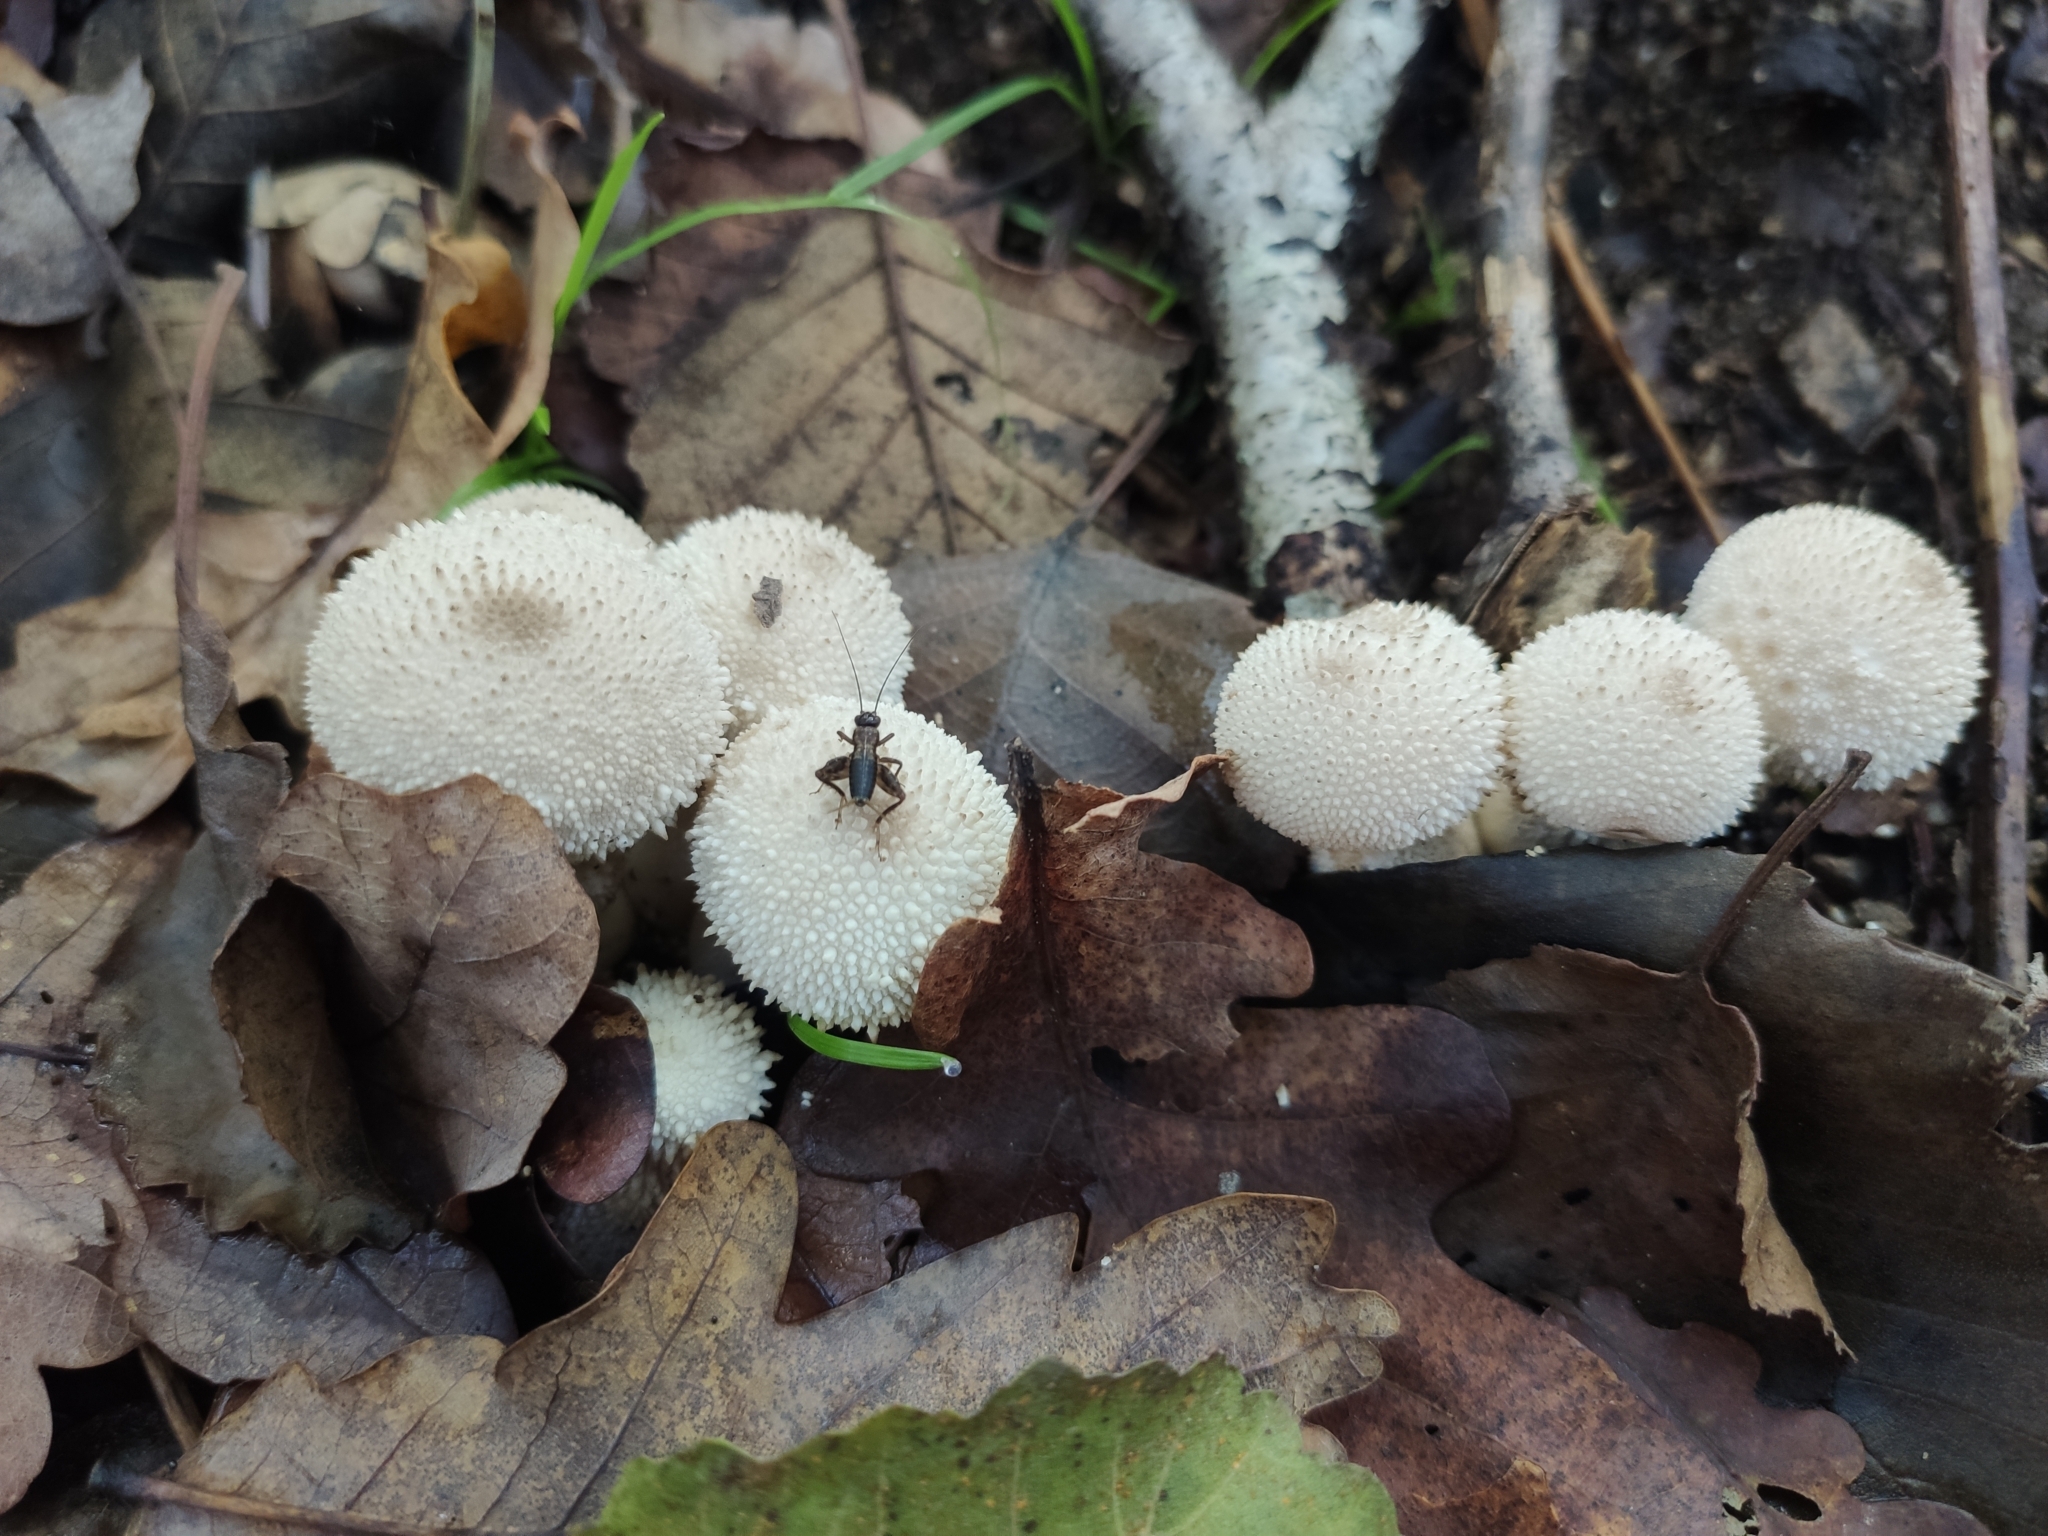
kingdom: Fungi
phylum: Basidiomycota
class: Agaricomycetes
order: Agaricales
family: Lycoperdaceae
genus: Lycoperdon
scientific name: Lycoperdon perlatum
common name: Common puffball
